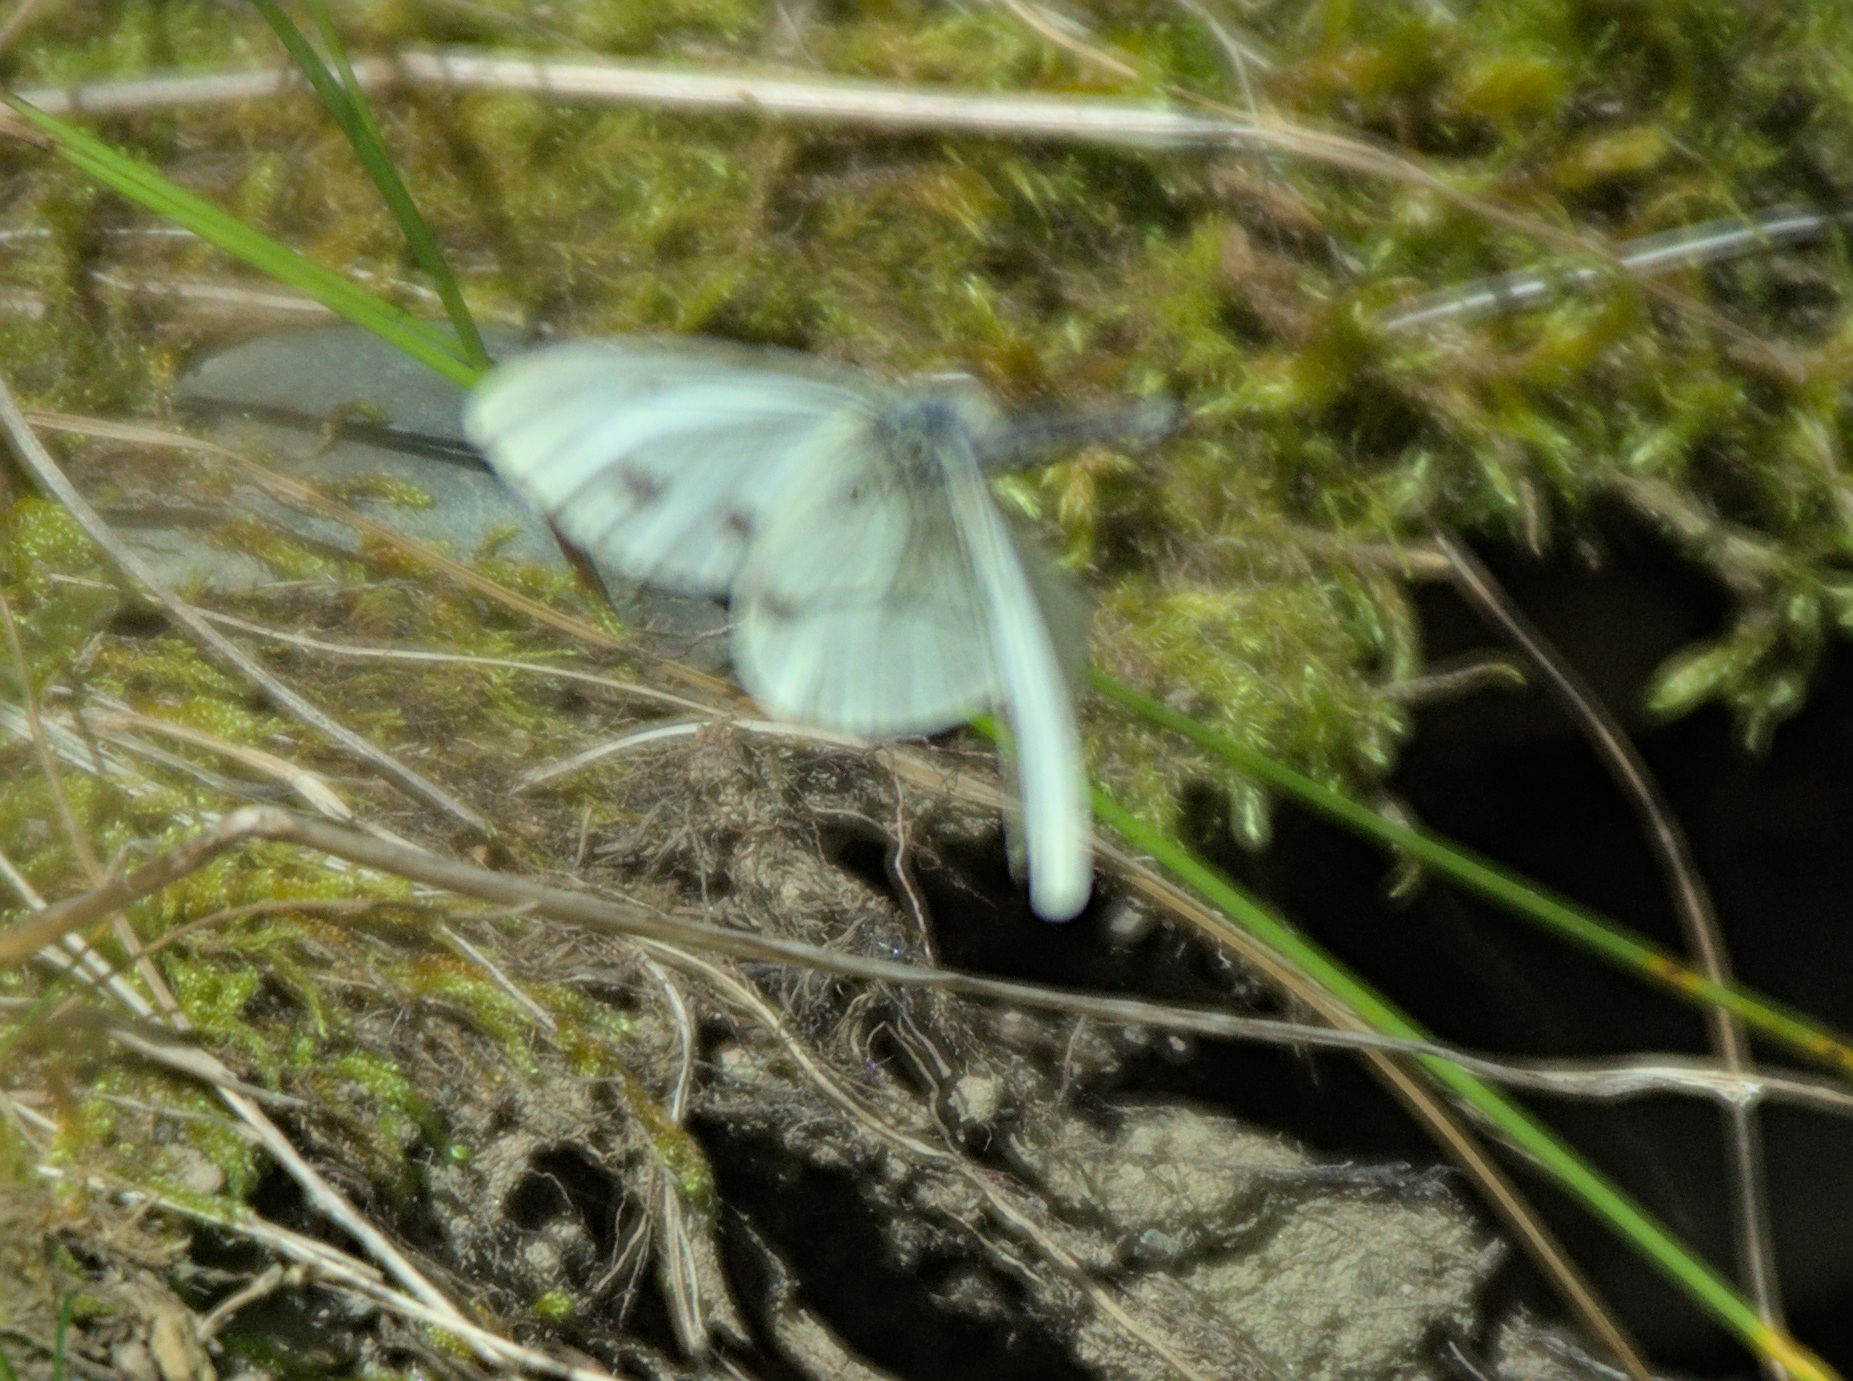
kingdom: Animalia
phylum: Arthropoda
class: Insecta
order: Lepidoptera
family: Pieridae
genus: Pieris
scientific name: Pieris napi
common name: Green-veined white
